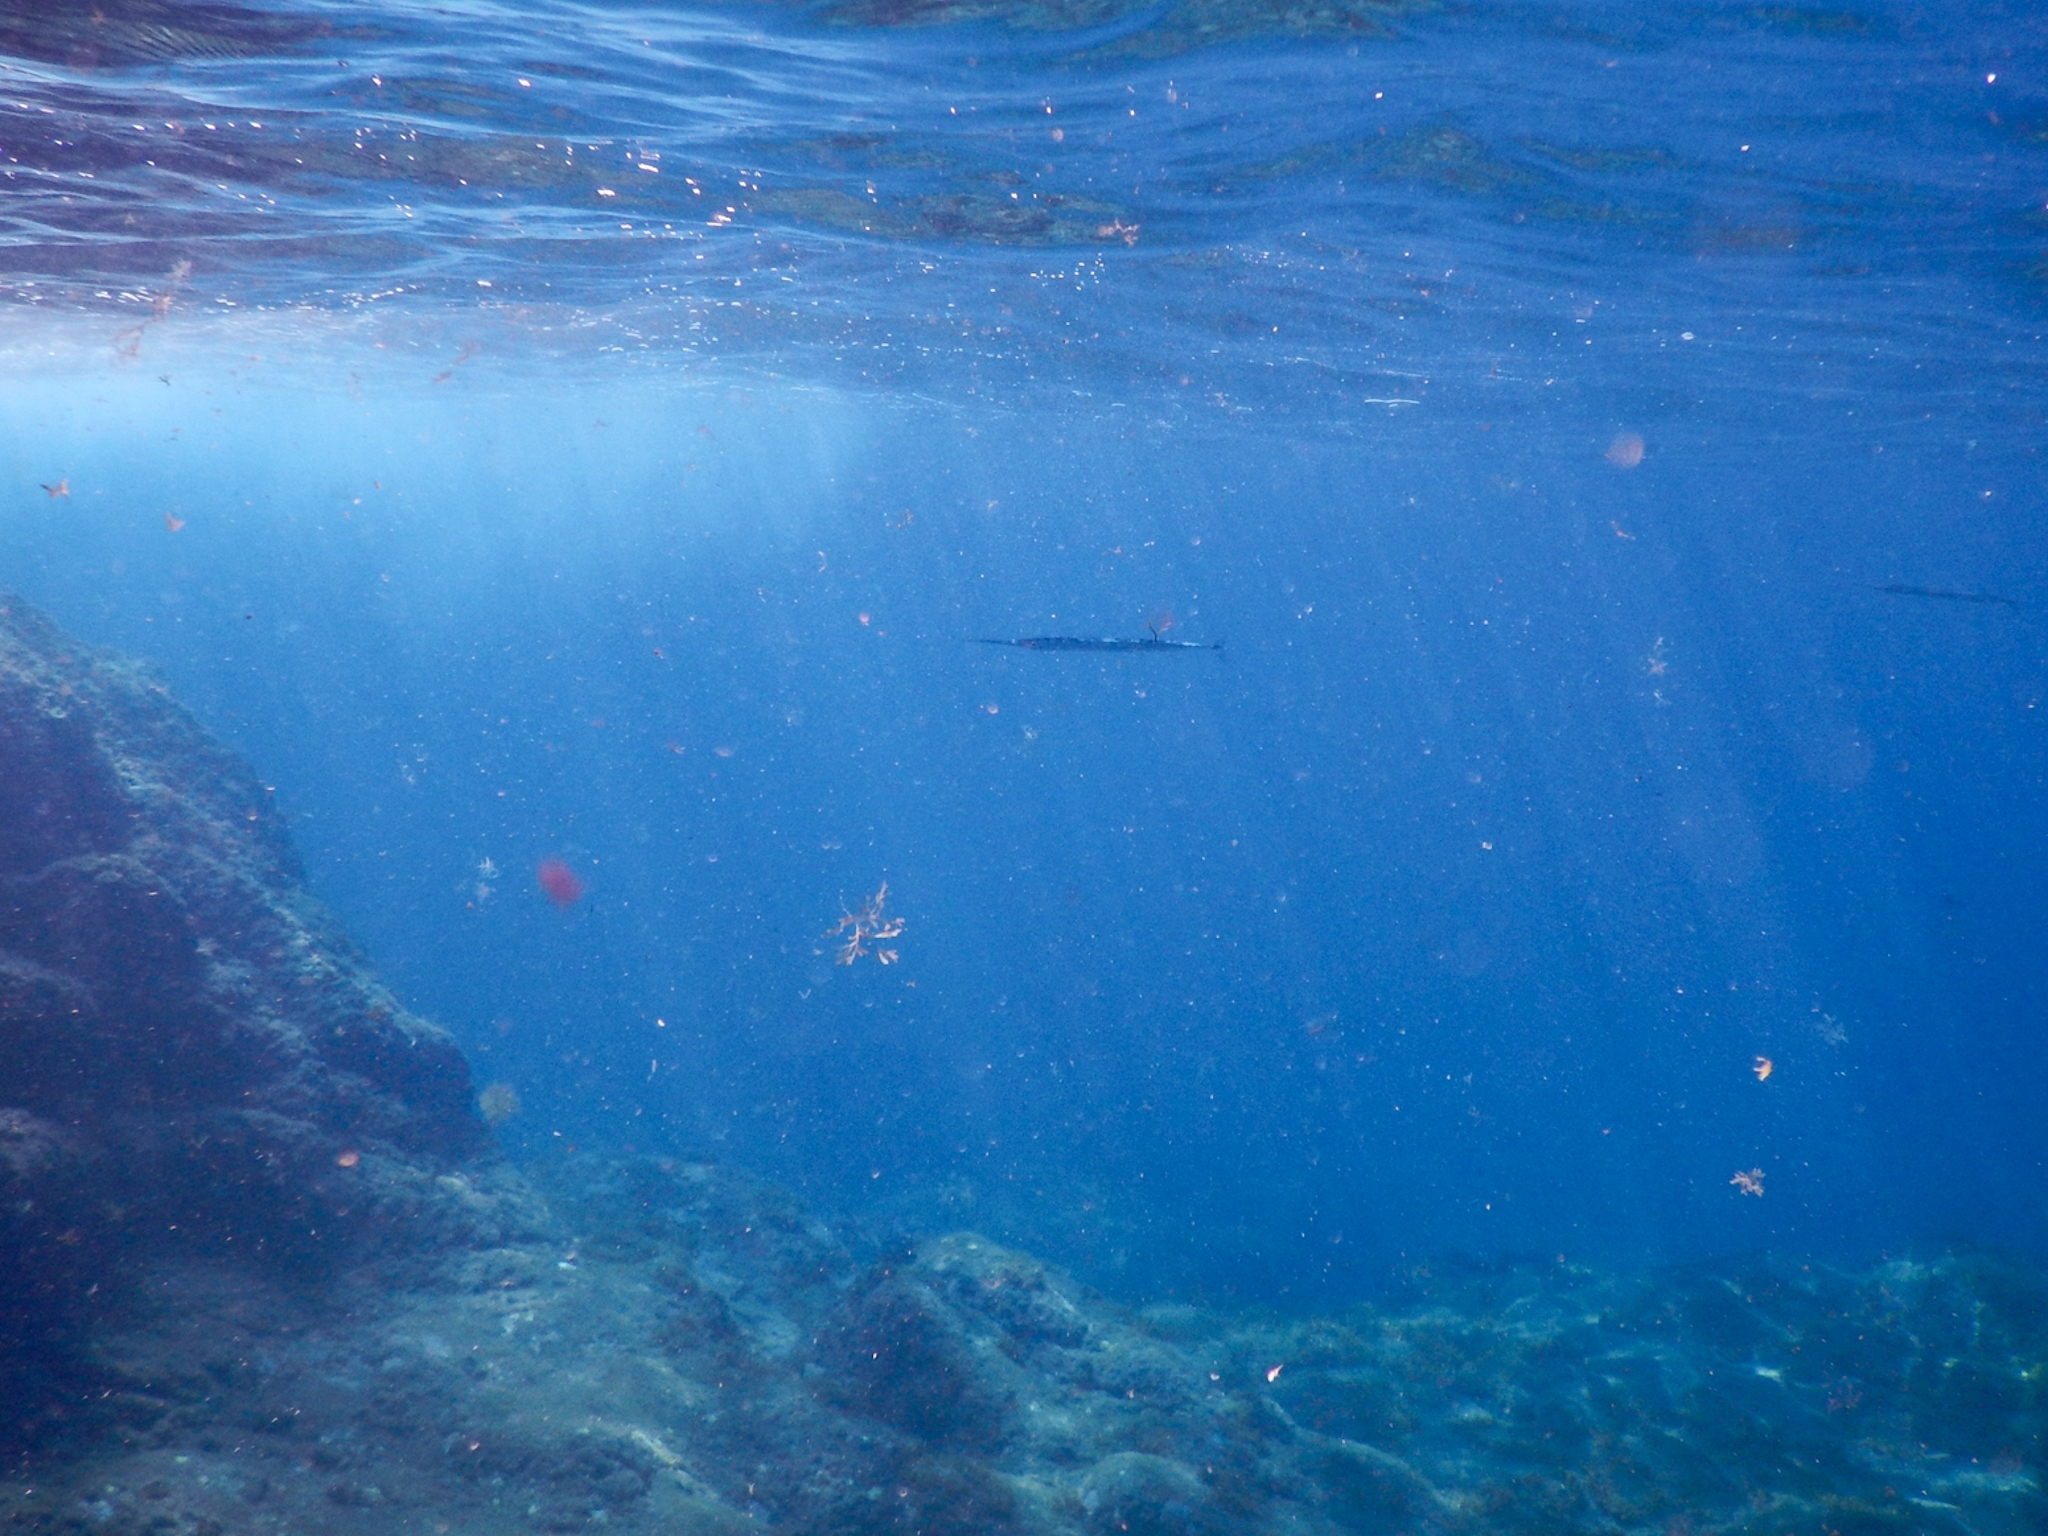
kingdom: Animalia
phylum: Chordata
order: Beloniformes
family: Belonidae
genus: Platybelone
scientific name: Platybelone argalus
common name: Keeltail needlefish
